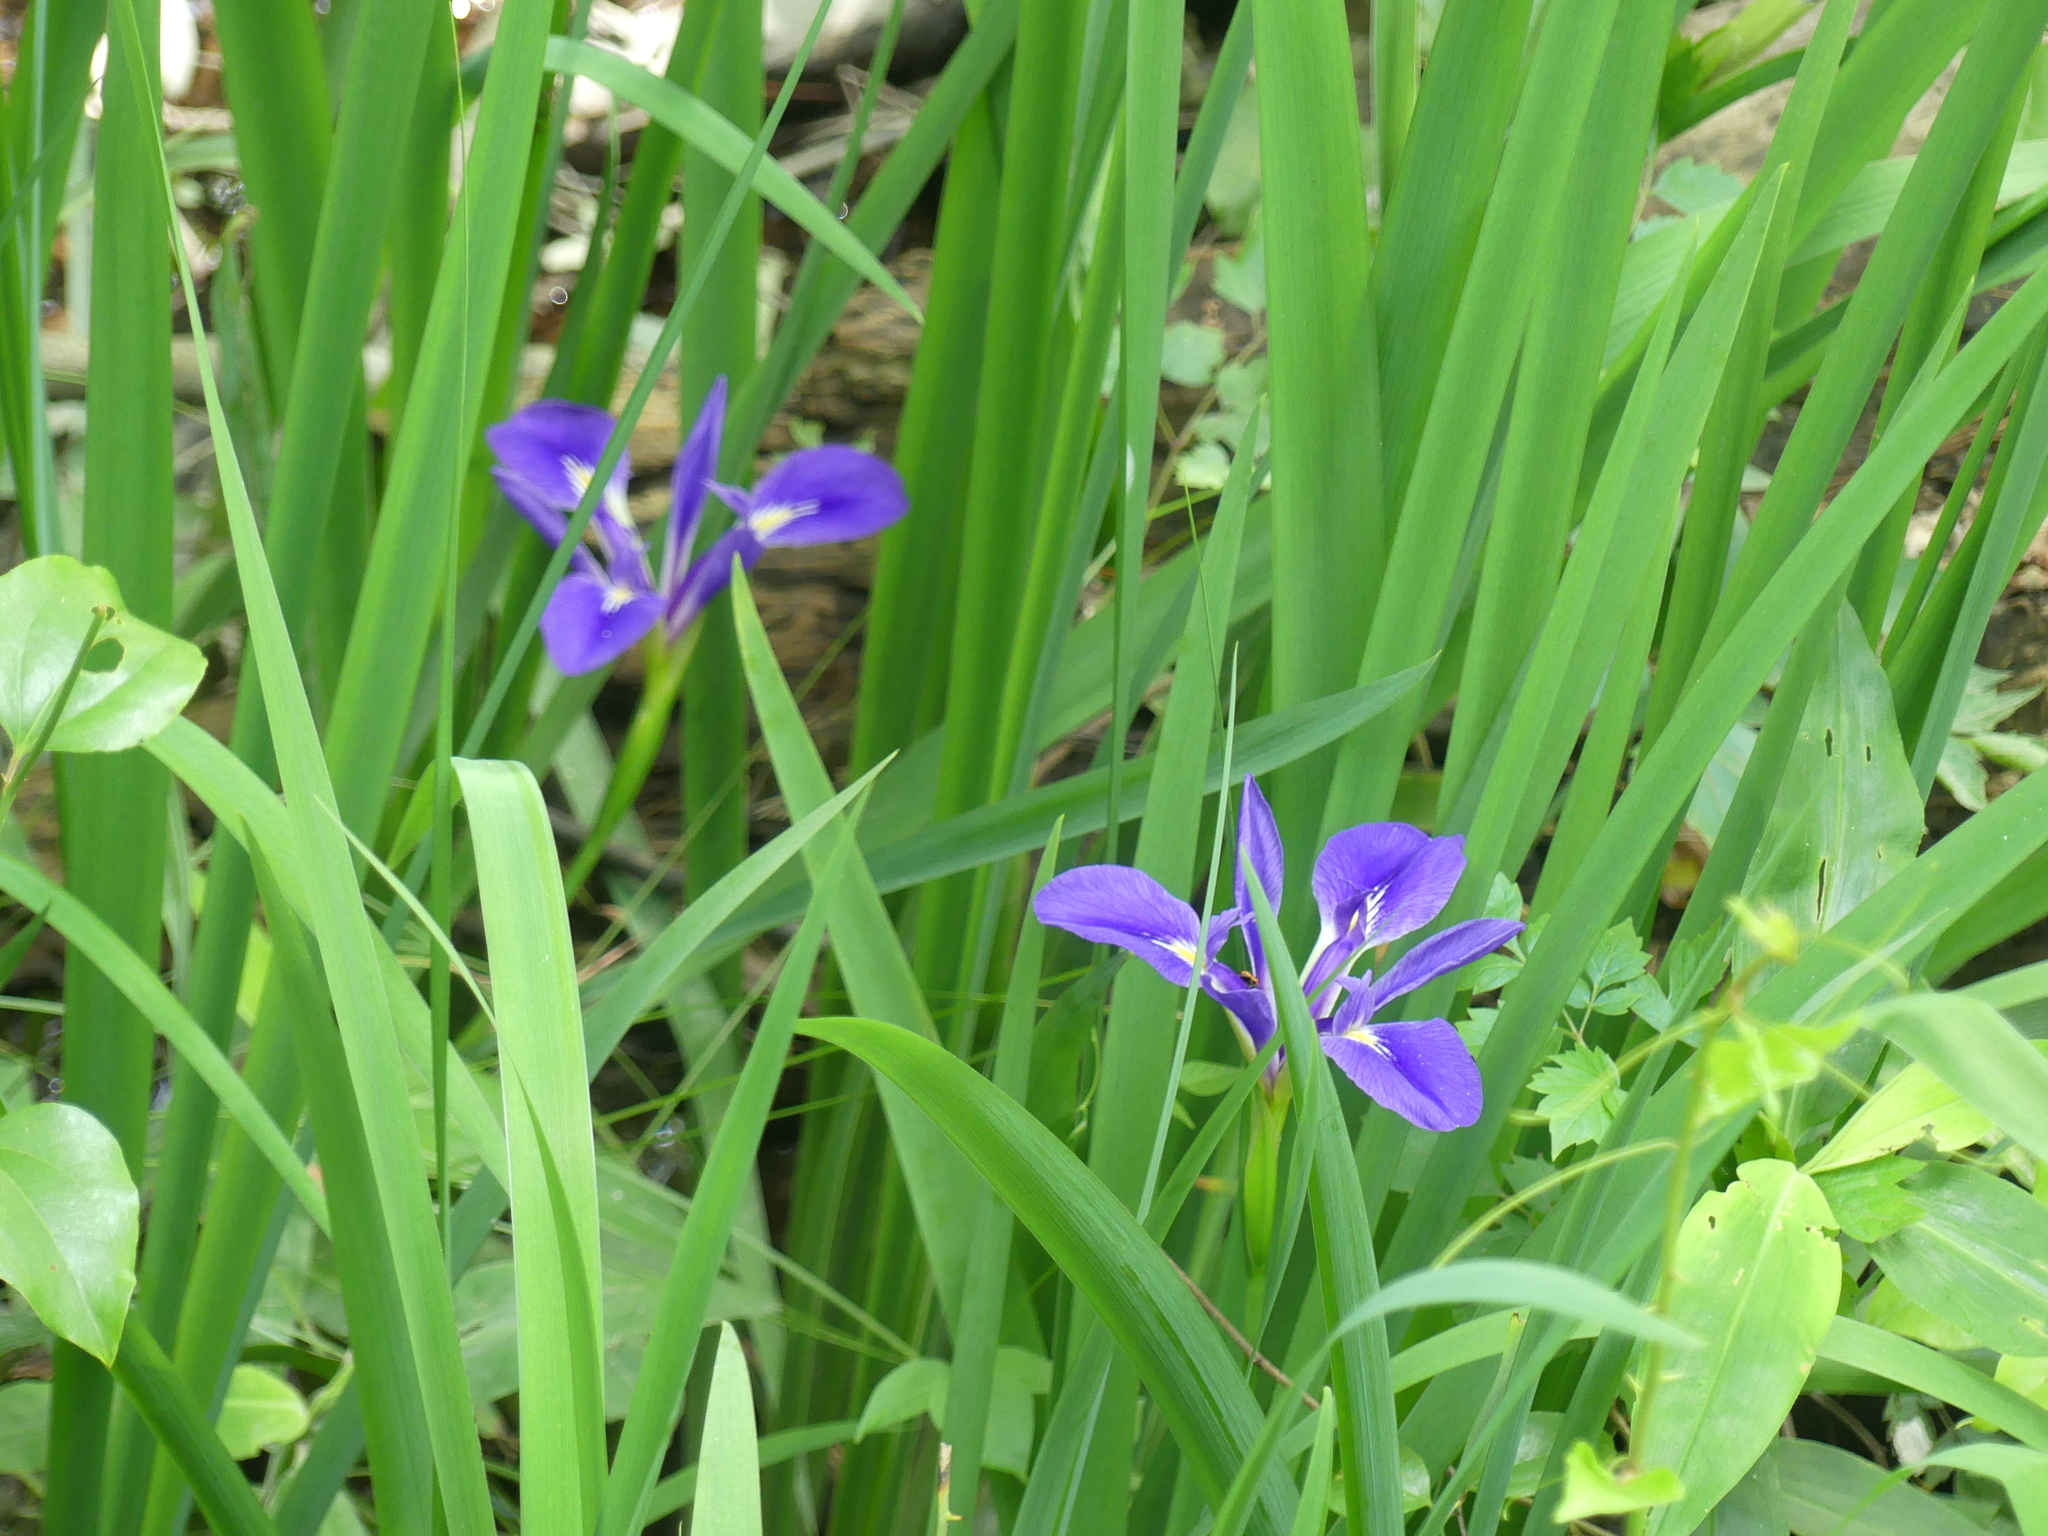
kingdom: Plantae
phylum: Tracheophyta
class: Liliopsida
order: Asparagales
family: Iridaceae
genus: Iris
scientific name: Iris brevicaulis
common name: Zigzag iris
